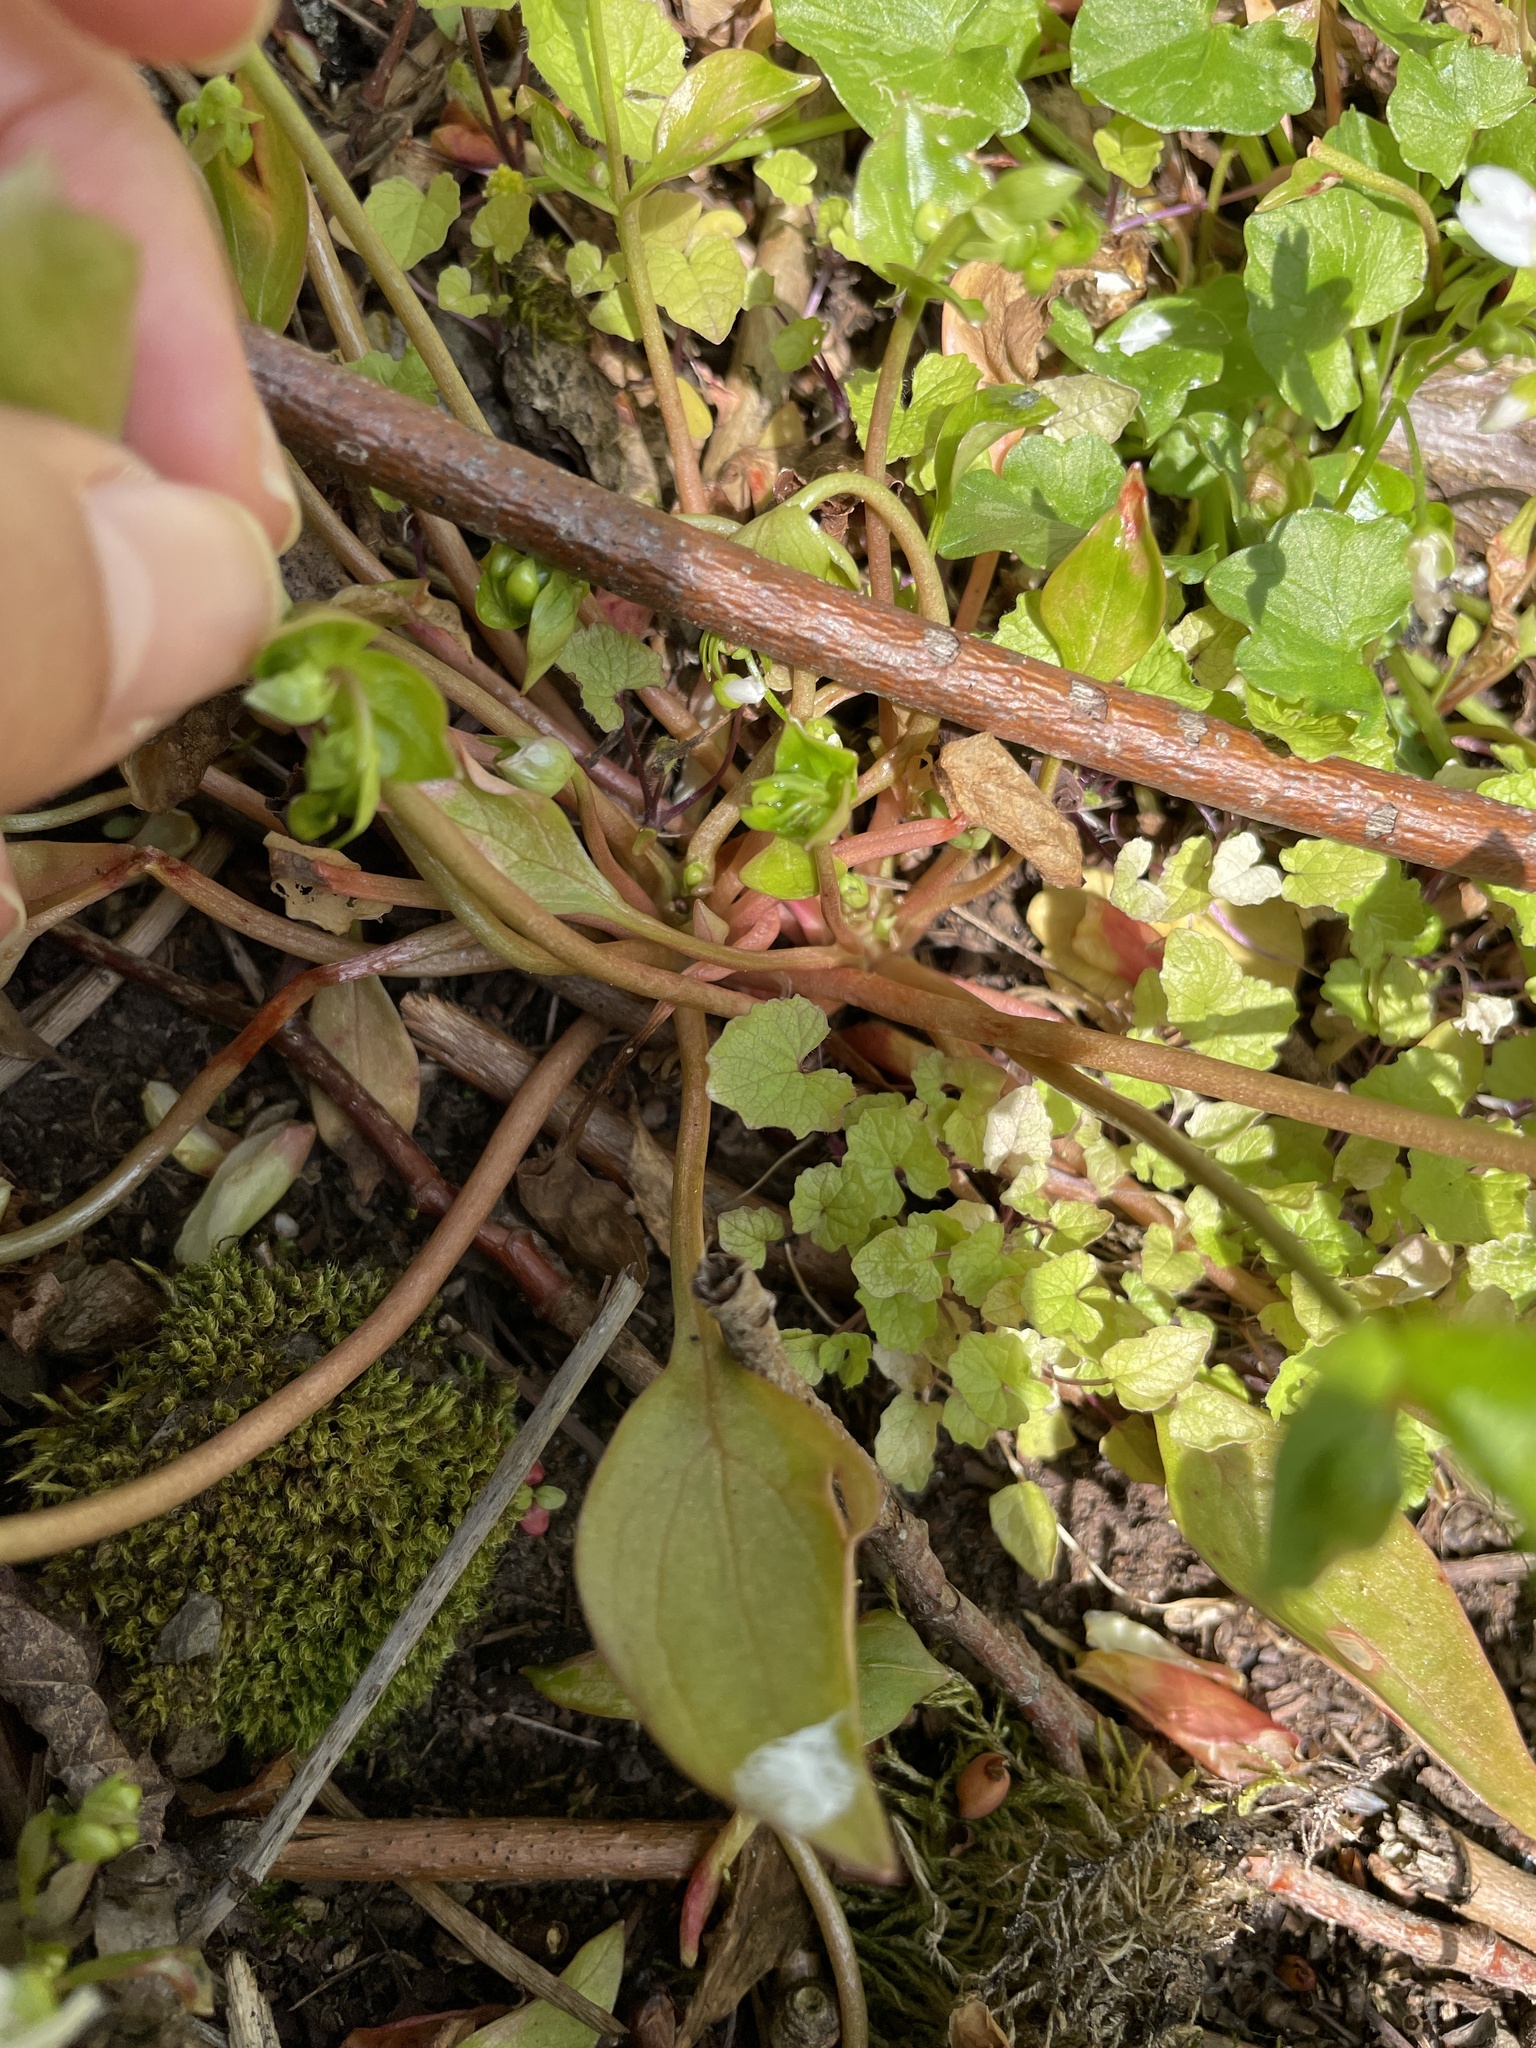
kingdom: Plantae
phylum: Tracheophyta
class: Magnoliopsida
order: Caryophyllales
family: Montiaceae
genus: Claytonia
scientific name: Claytonia sibirica
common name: Pink purslane
